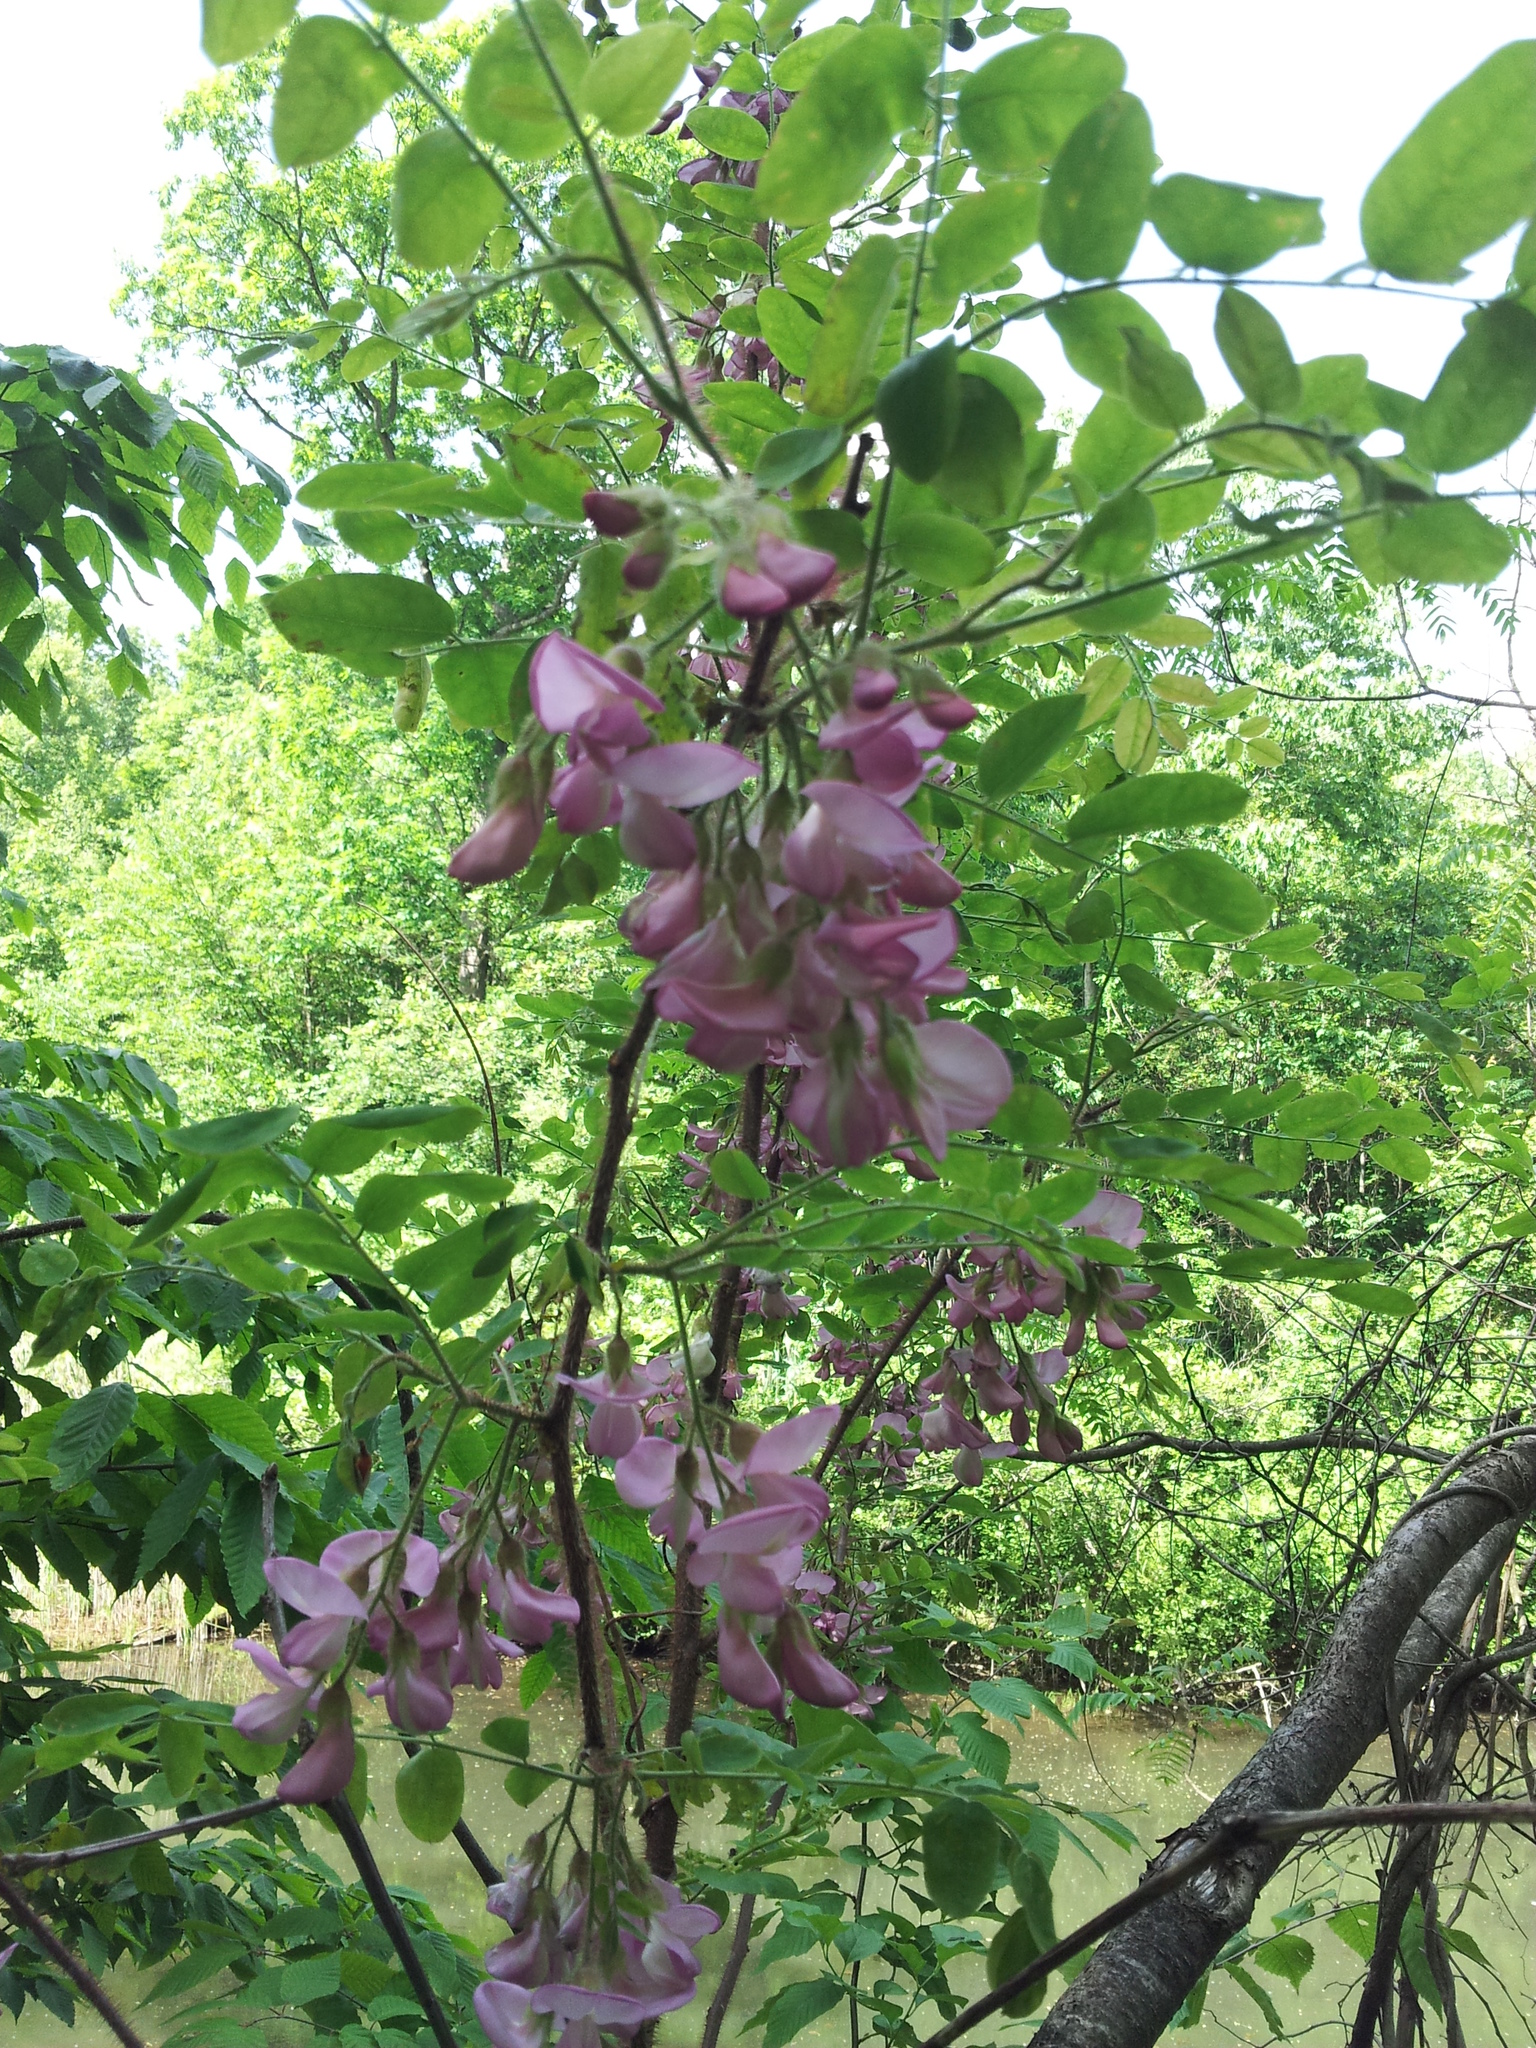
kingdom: Plantae
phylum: Tracheophyta
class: Magnoliopsida
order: Fabales
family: Fabaceae
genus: Robinia
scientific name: Robinia hispida
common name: Bristly locust
